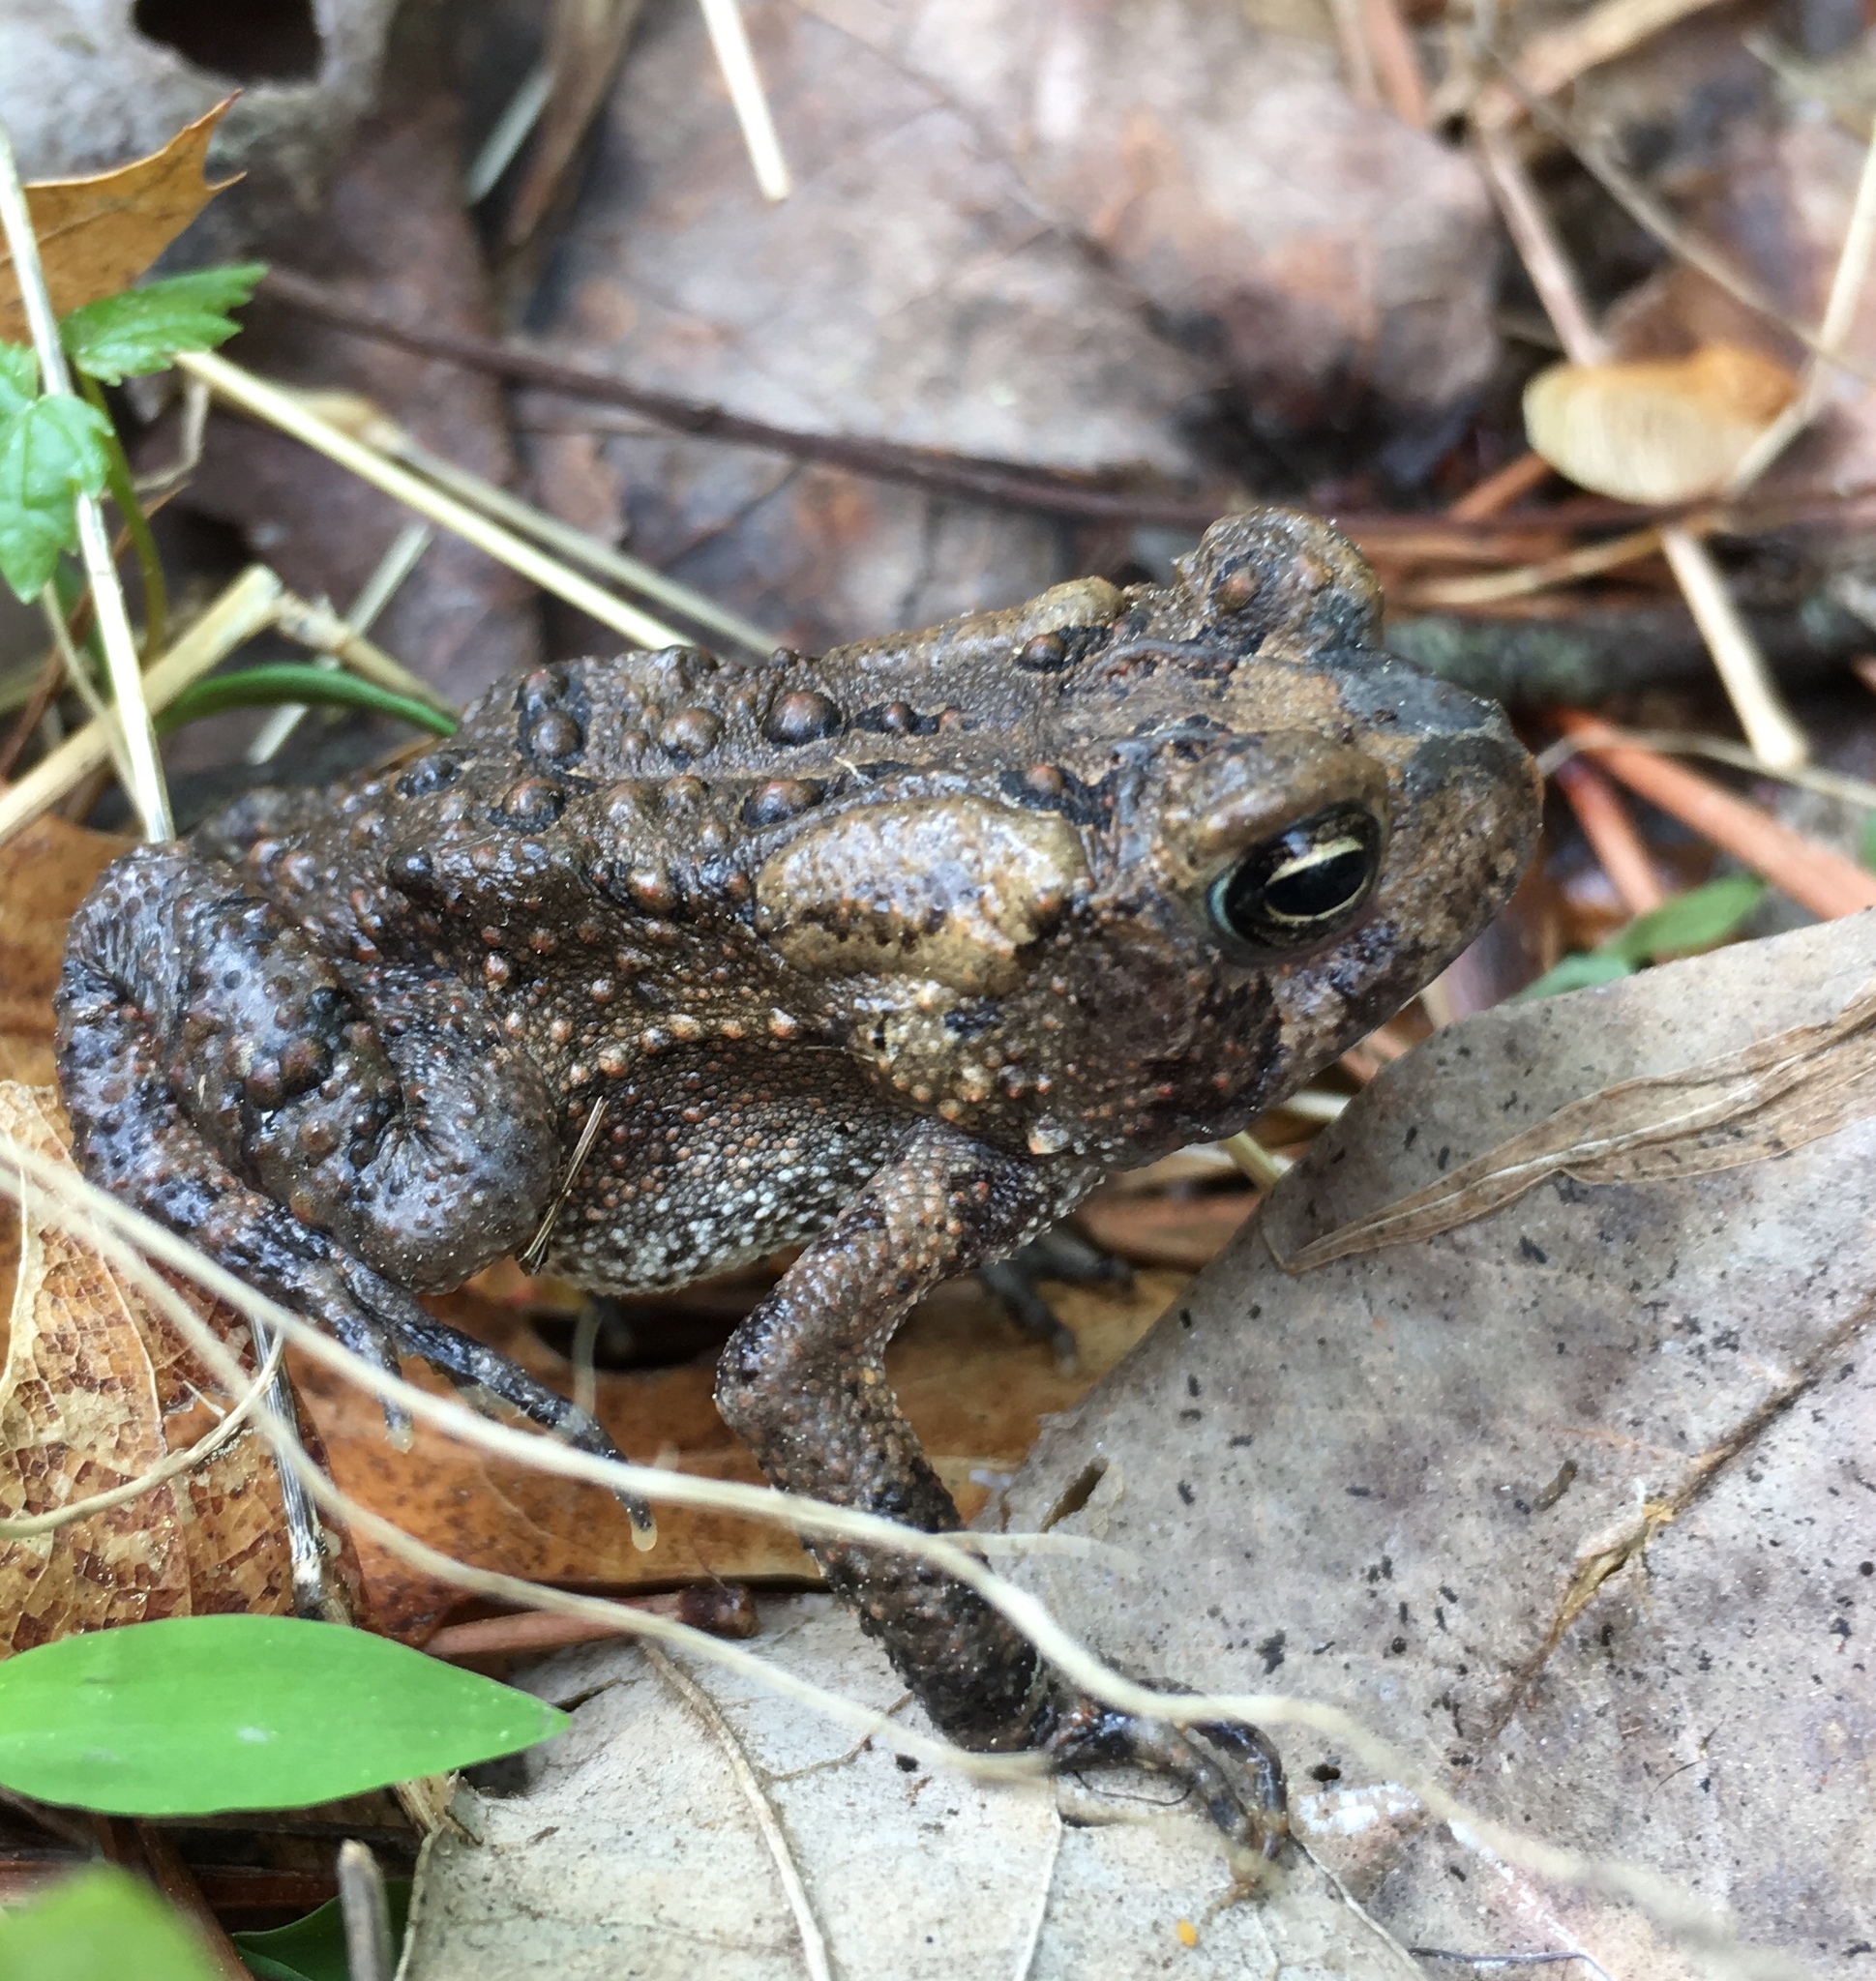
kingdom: Animalia
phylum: Chordata
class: Amphibia
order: Anura
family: Bufonidae
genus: Anaxyrus
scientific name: Anaxyrus americanus
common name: American toad
